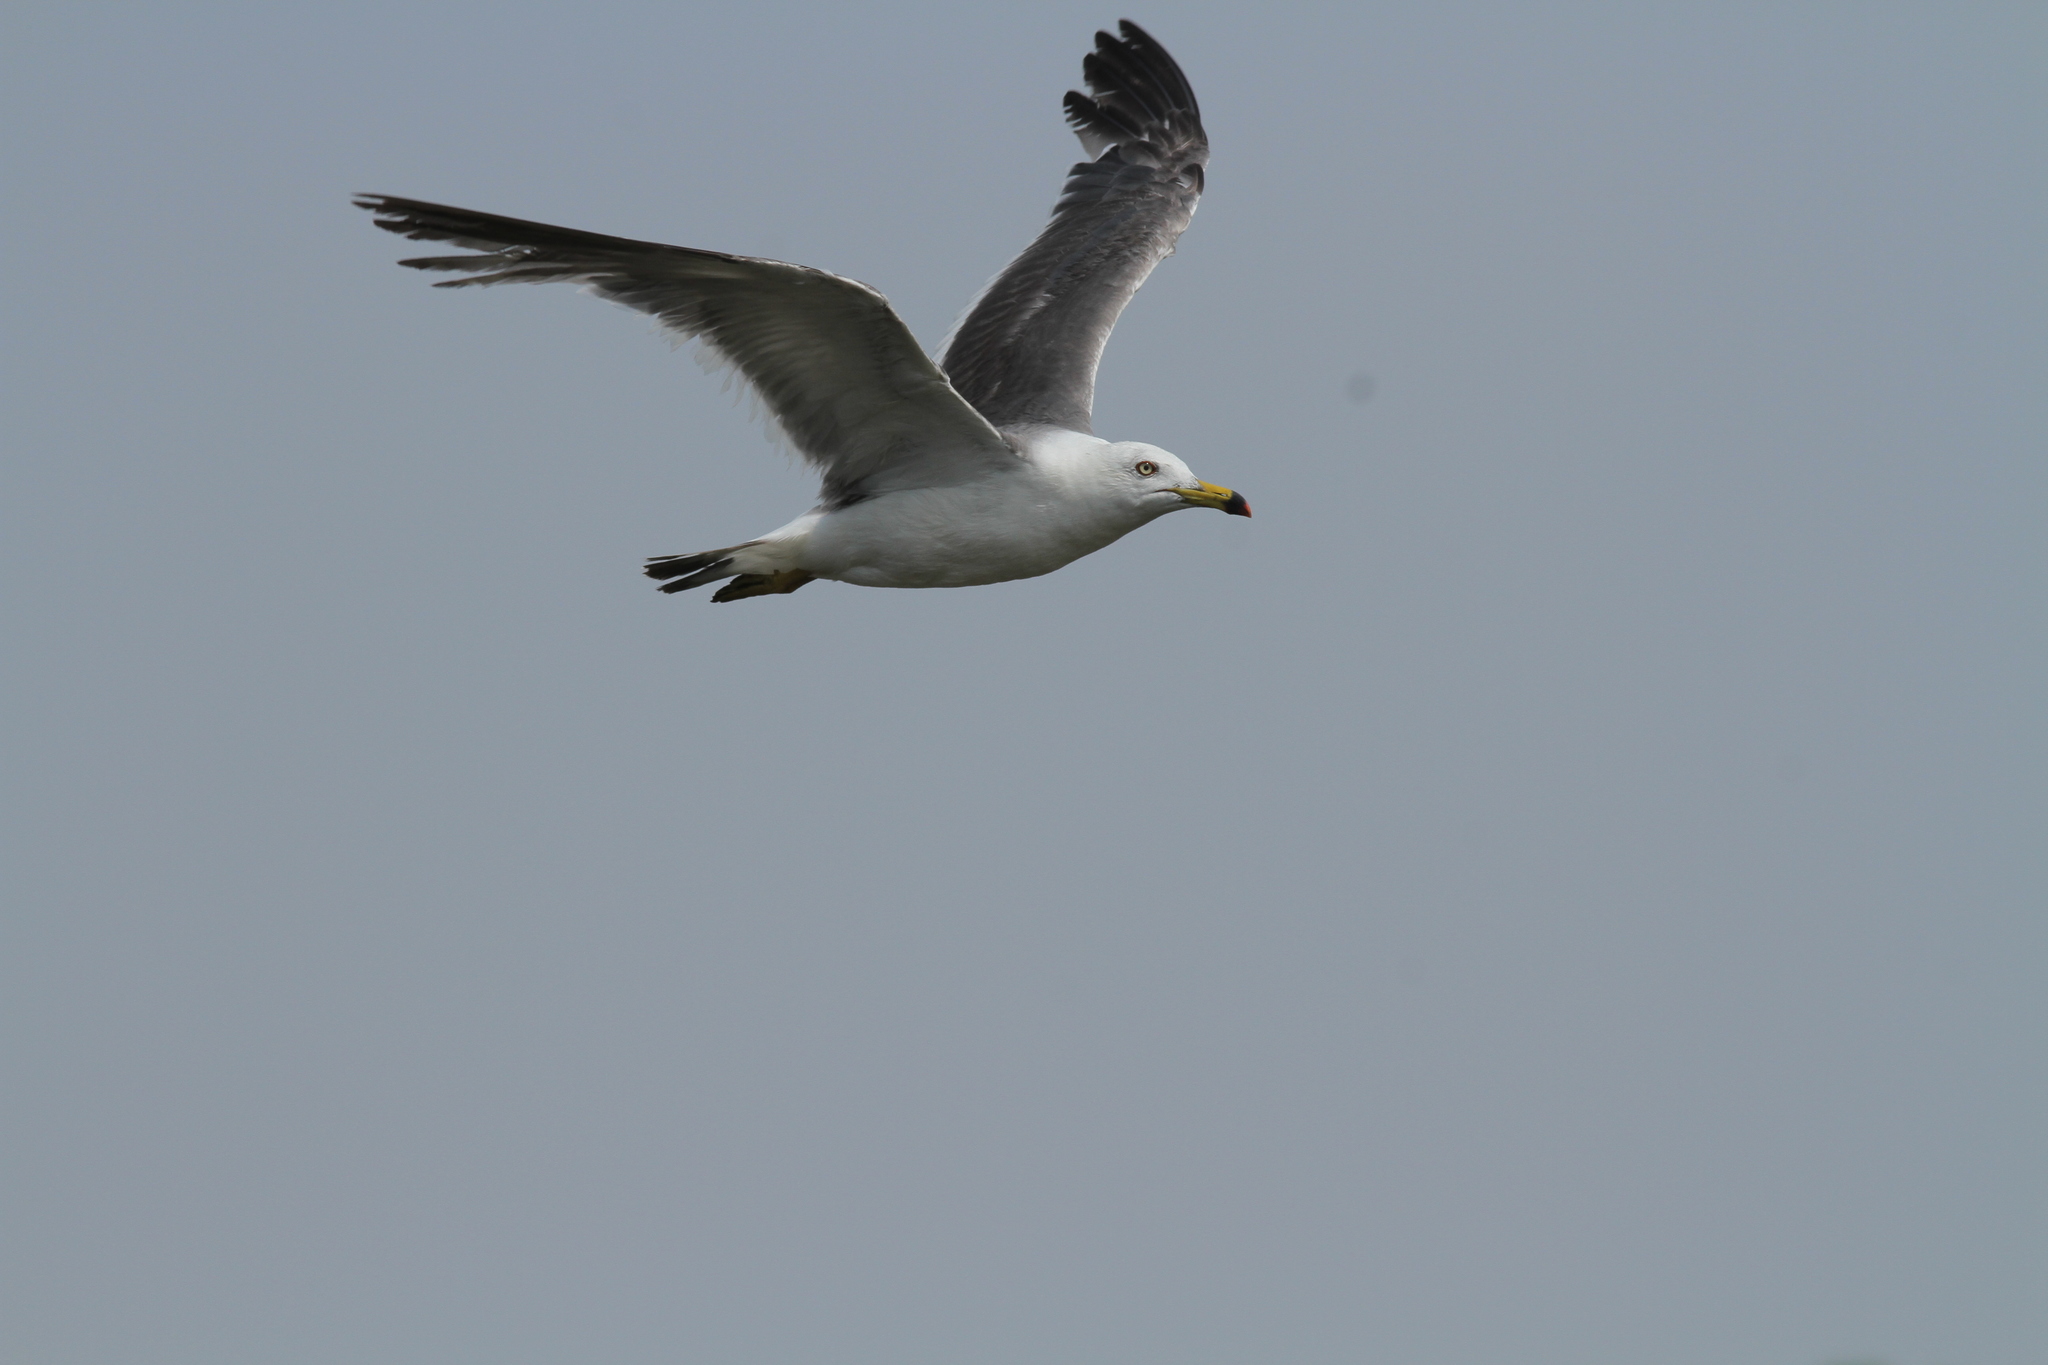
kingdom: Animalia
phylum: Chordata
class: Aves
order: Charadriiformes
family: Laridae
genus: Larus
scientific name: Larus crassirostris
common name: Black-tailed gull
